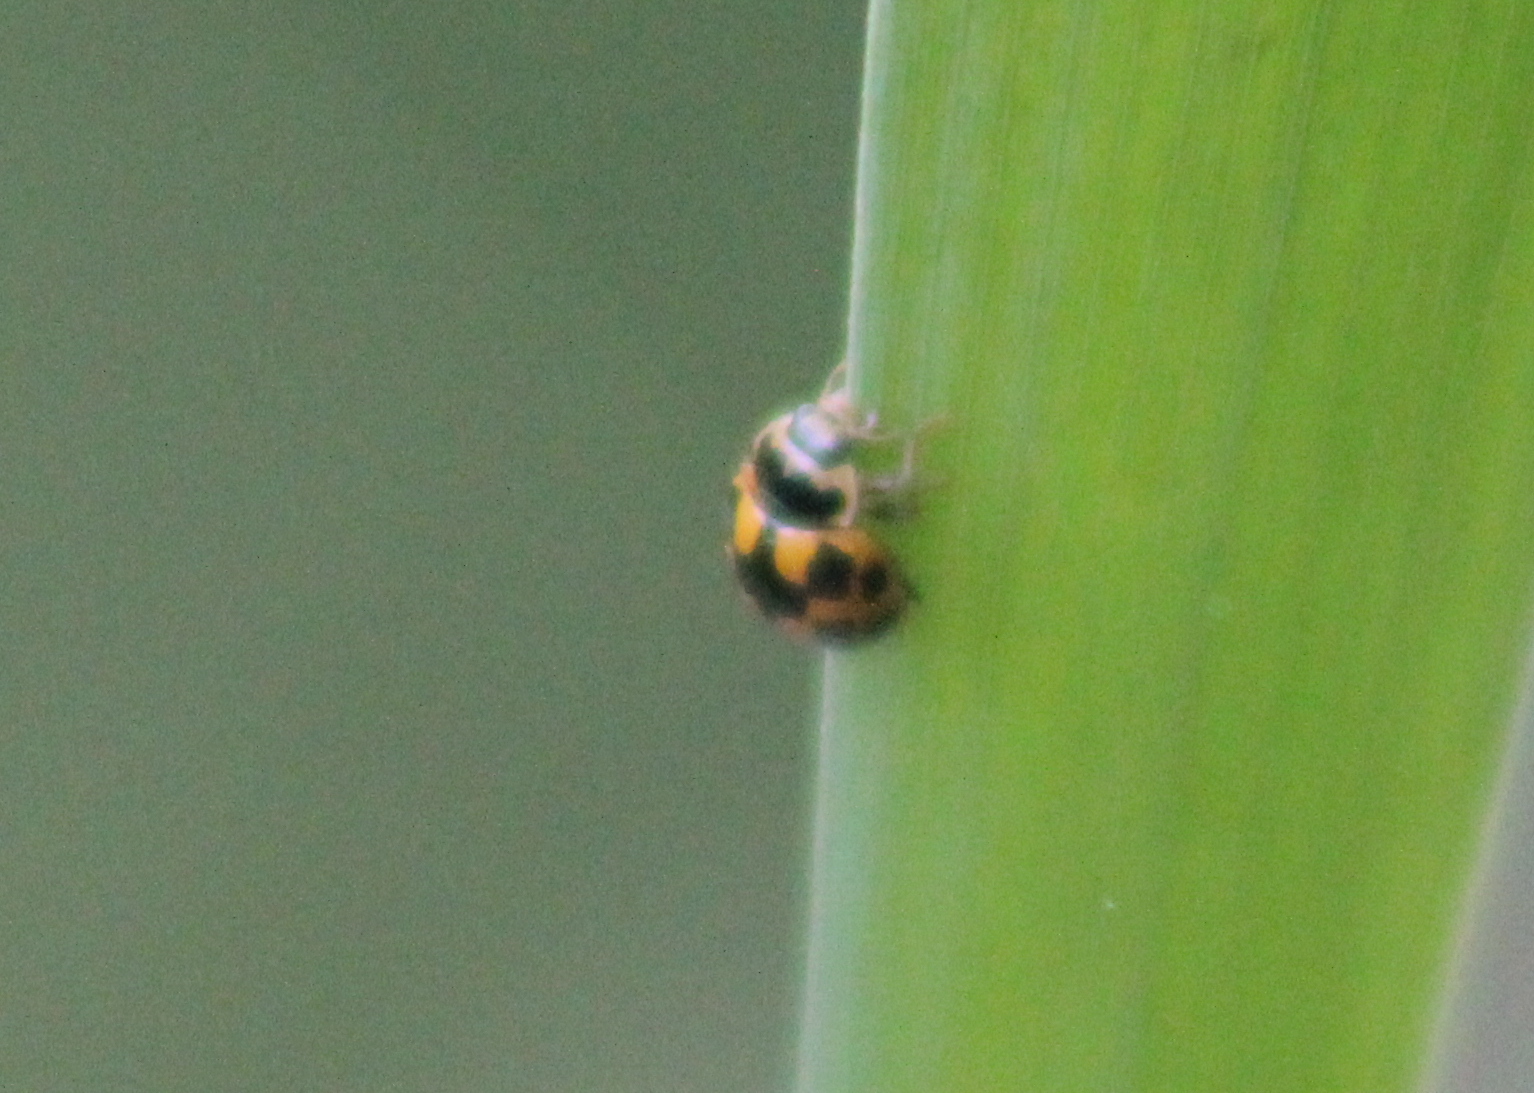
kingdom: Animalia
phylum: Arthropoda
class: Insecta
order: Coleoptera
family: Coccinellidae
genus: Propylaea
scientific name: Propylaea quatuordecimpunctata
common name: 14-spotted ladybird beetle
